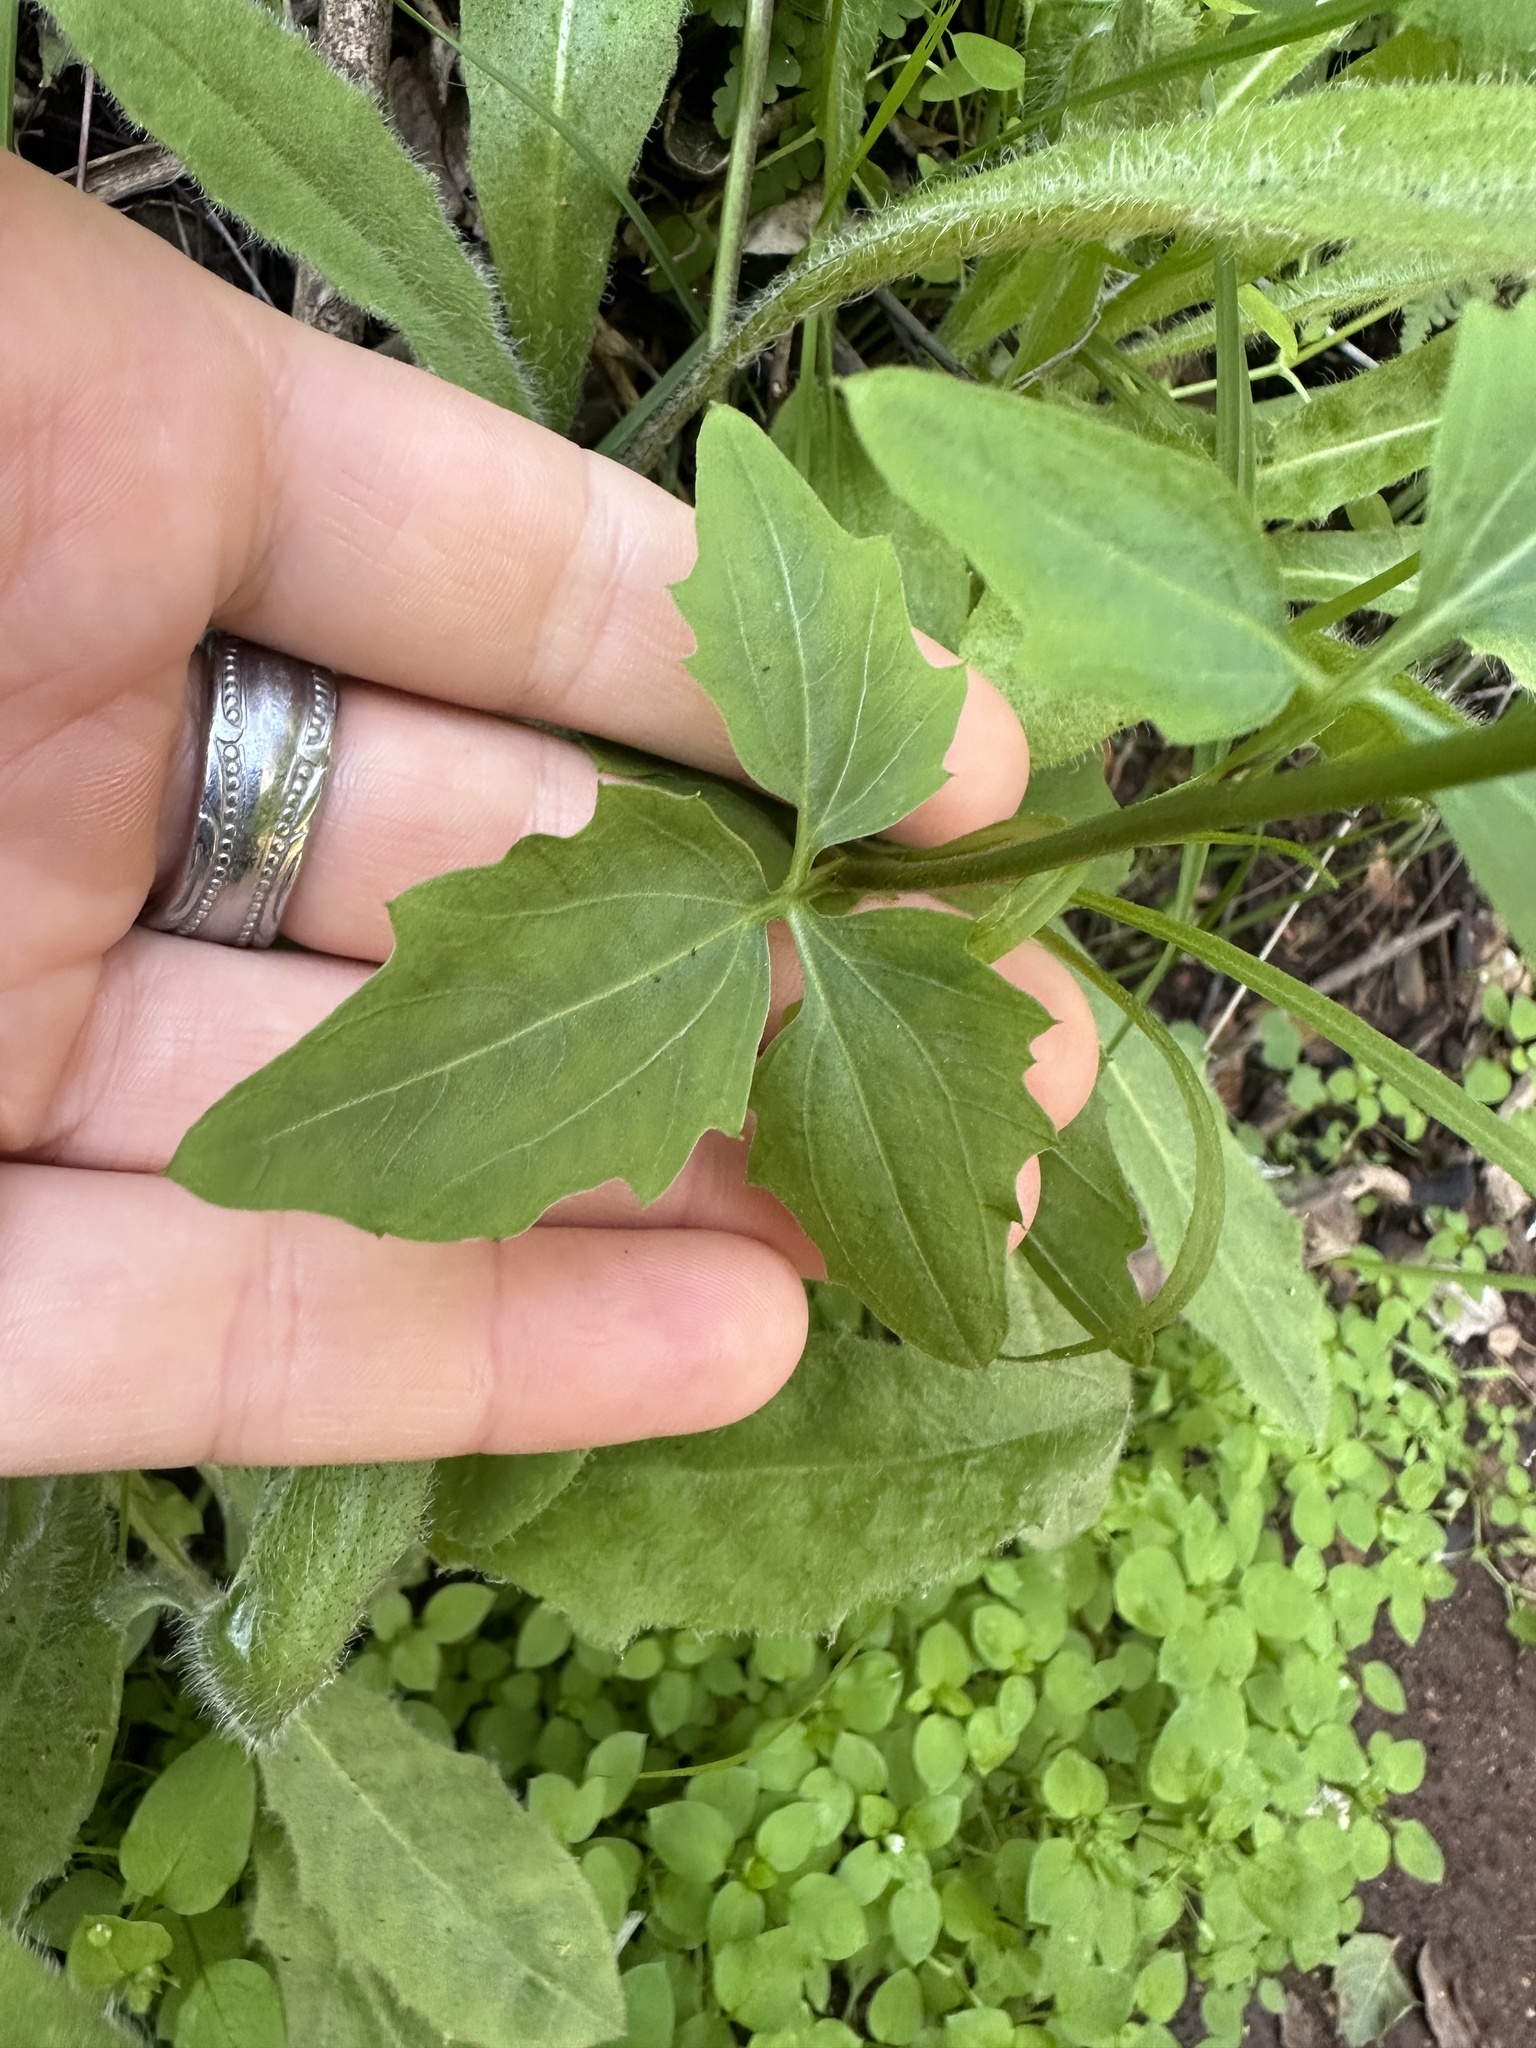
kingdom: Plantae
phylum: Tracheophyta
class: Magnoliopsida
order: Brassicales
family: Brassicaceae
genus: Cardamine
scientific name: Cardamine californica
